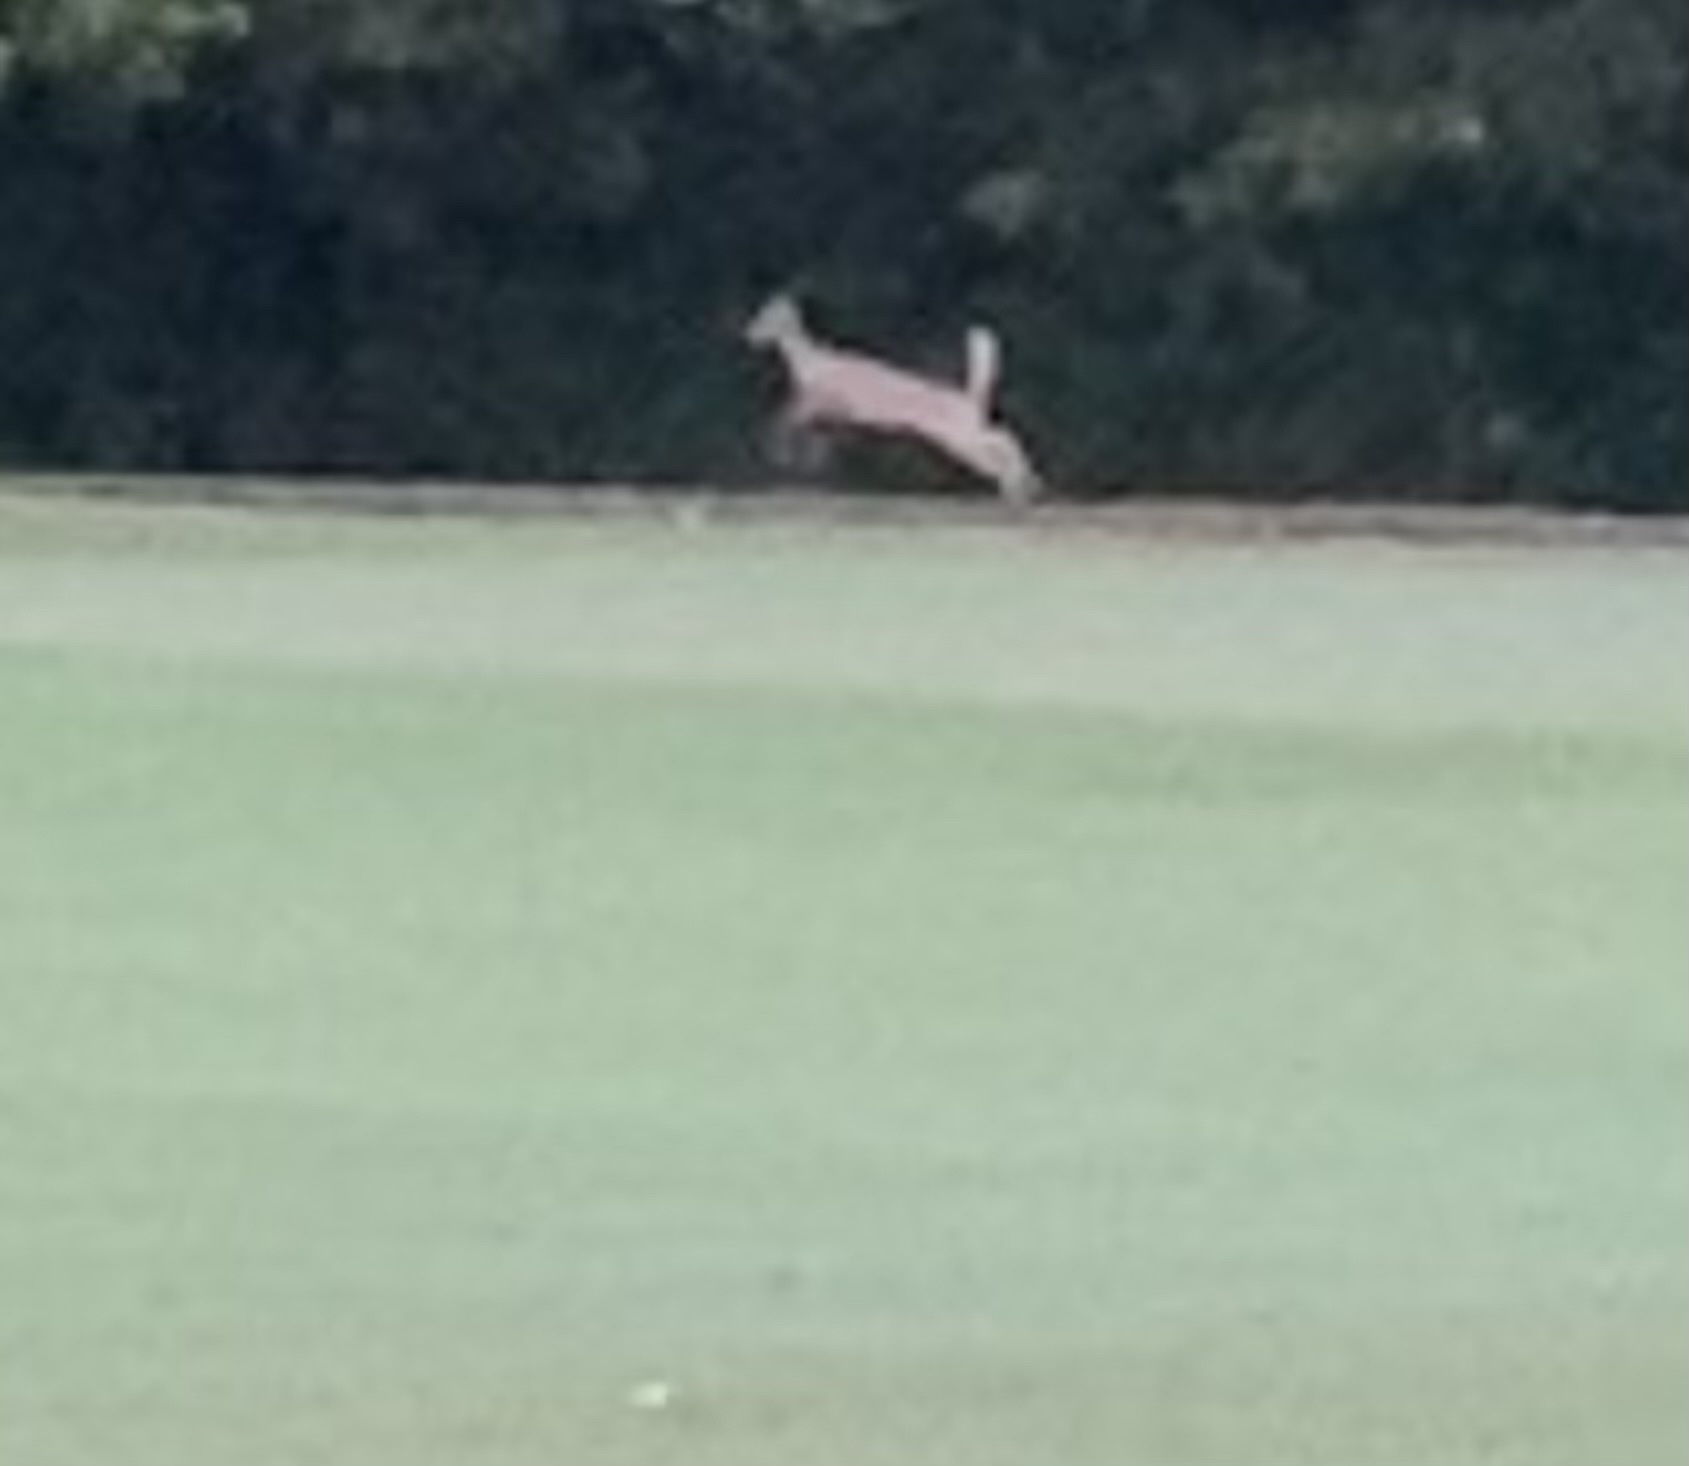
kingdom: Animalia
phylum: Chordata
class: Mammalia
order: Artiodactyla
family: Cervidae
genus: Odocoileus
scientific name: Odocoileus virginianus
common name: White-tailed deer
